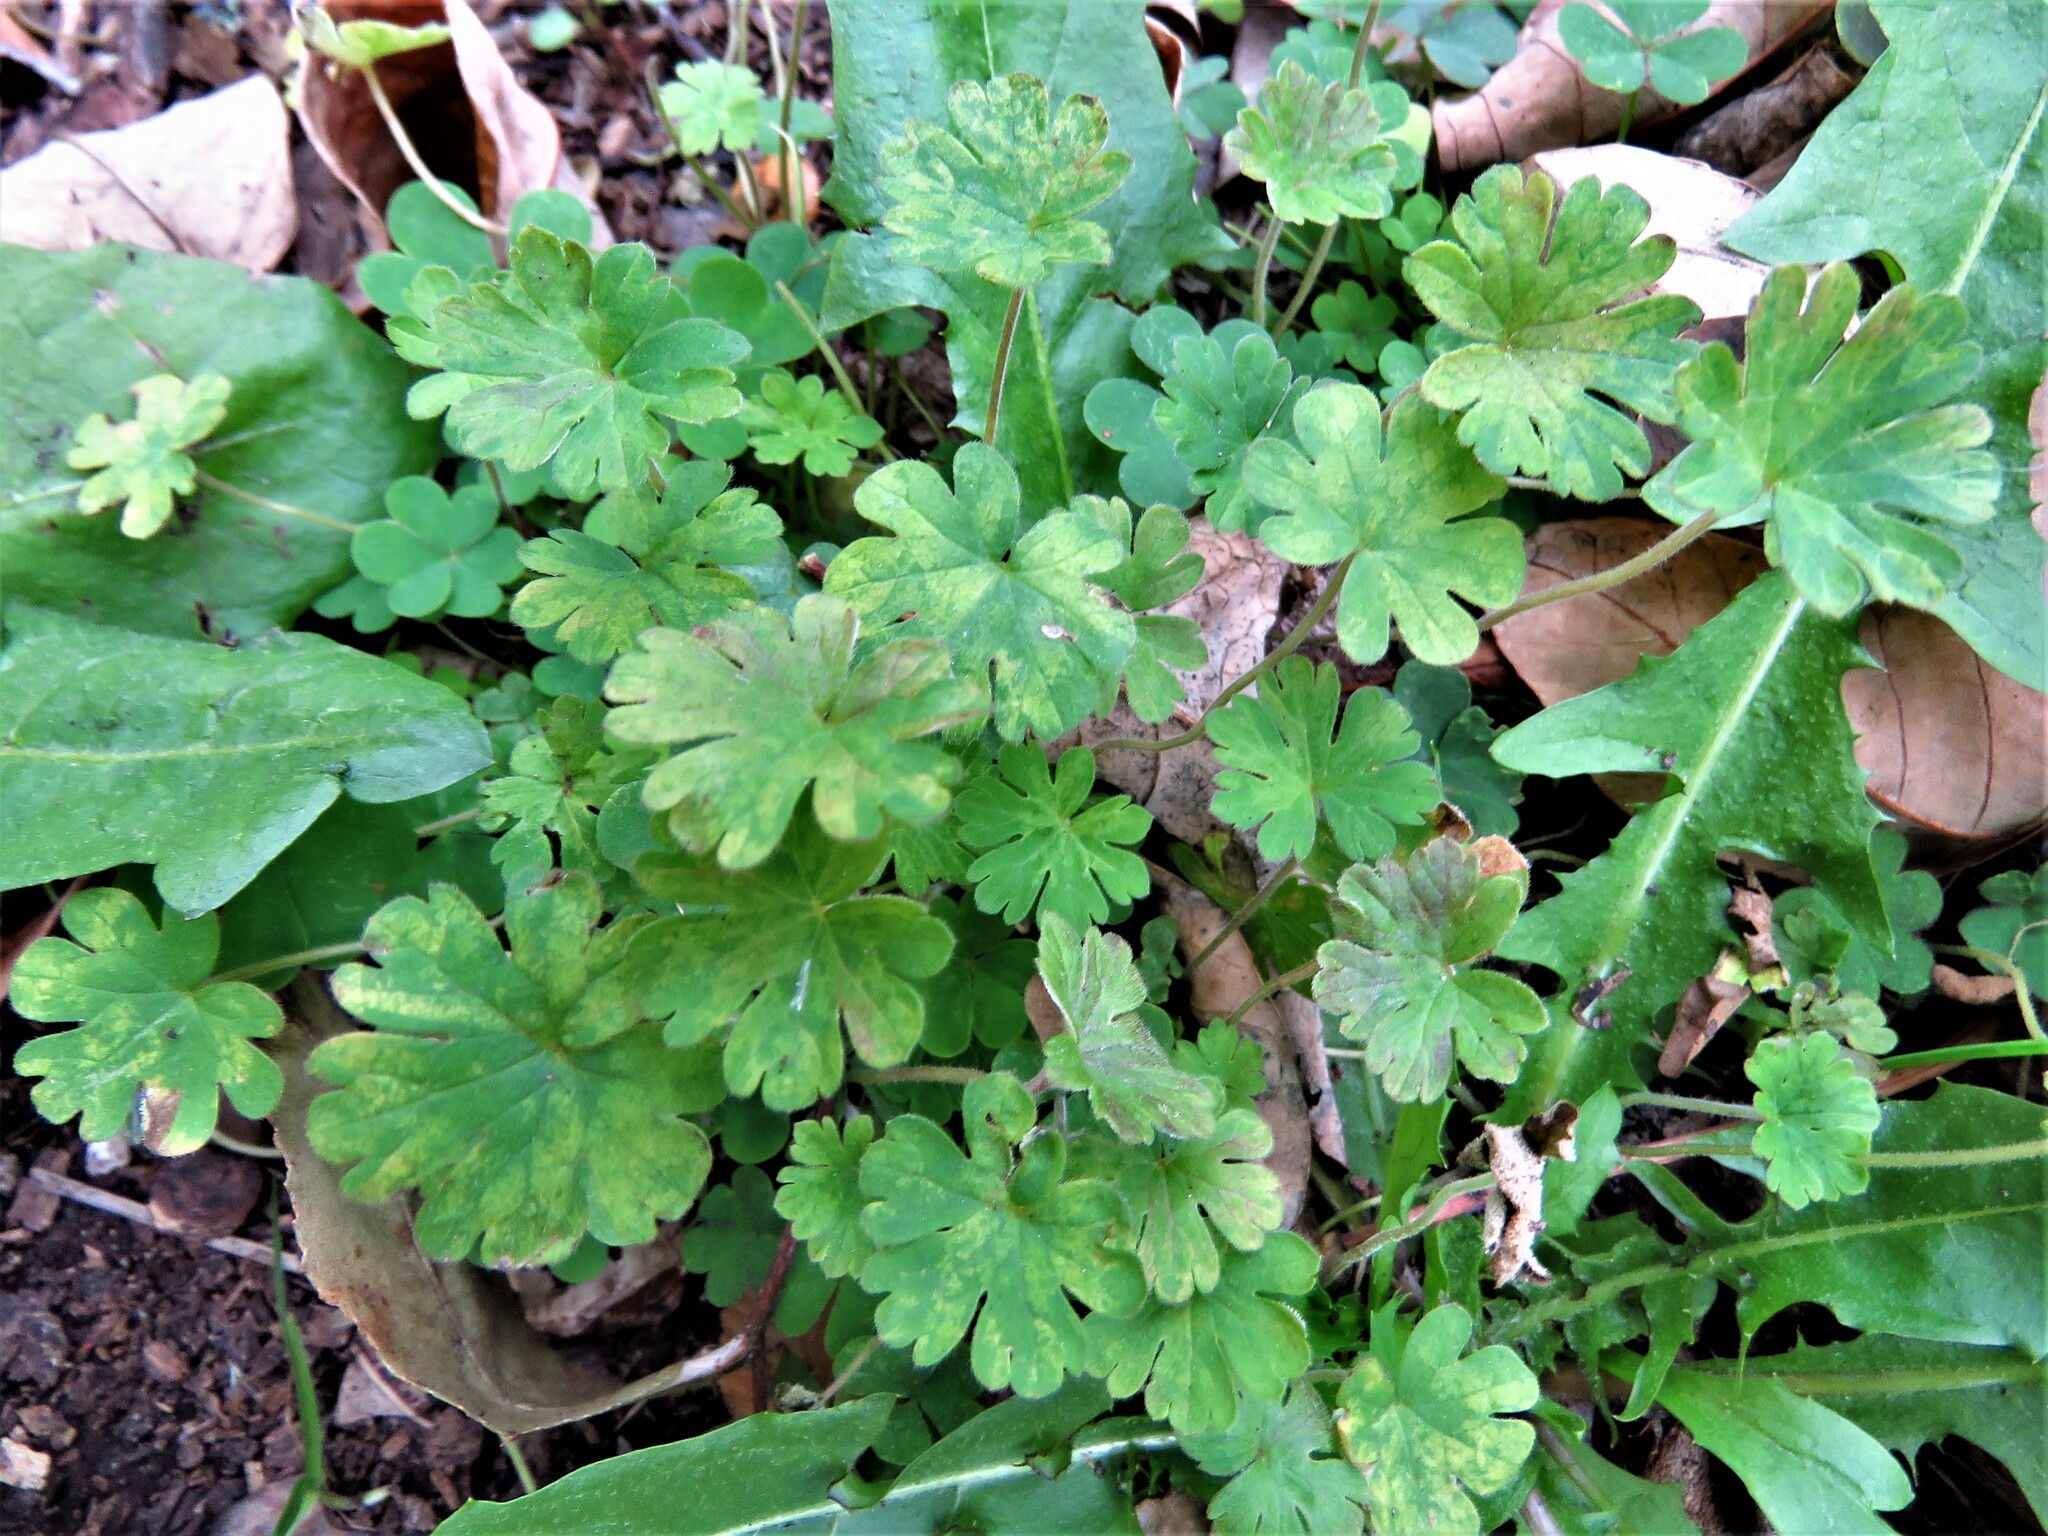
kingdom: Plantae
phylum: Tracheophyta
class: Magnoliopsida
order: Geraniales
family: Geraniaceae
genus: Geranium
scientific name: Geranium carolinianum
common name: Carolina crane's-bill
